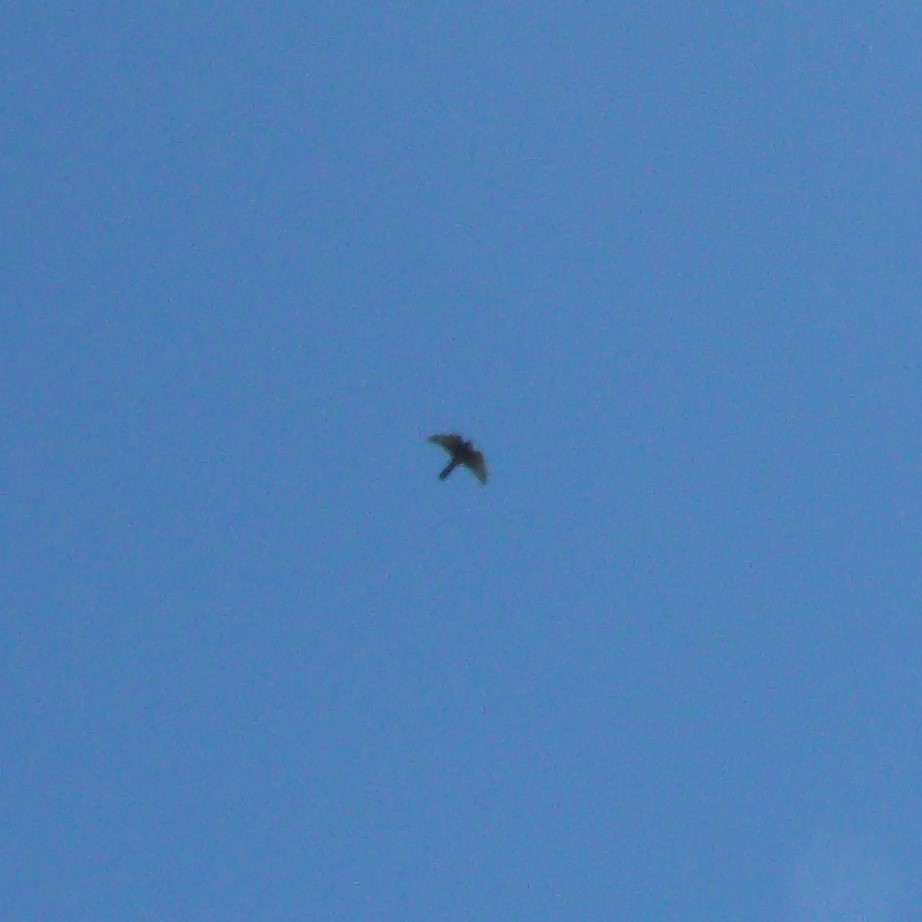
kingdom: Animalia
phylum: Chordata
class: Aves
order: Falconiformes
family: Falconidae
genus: Falco
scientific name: Falco novaeseelandiae
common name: New zealand falcon
